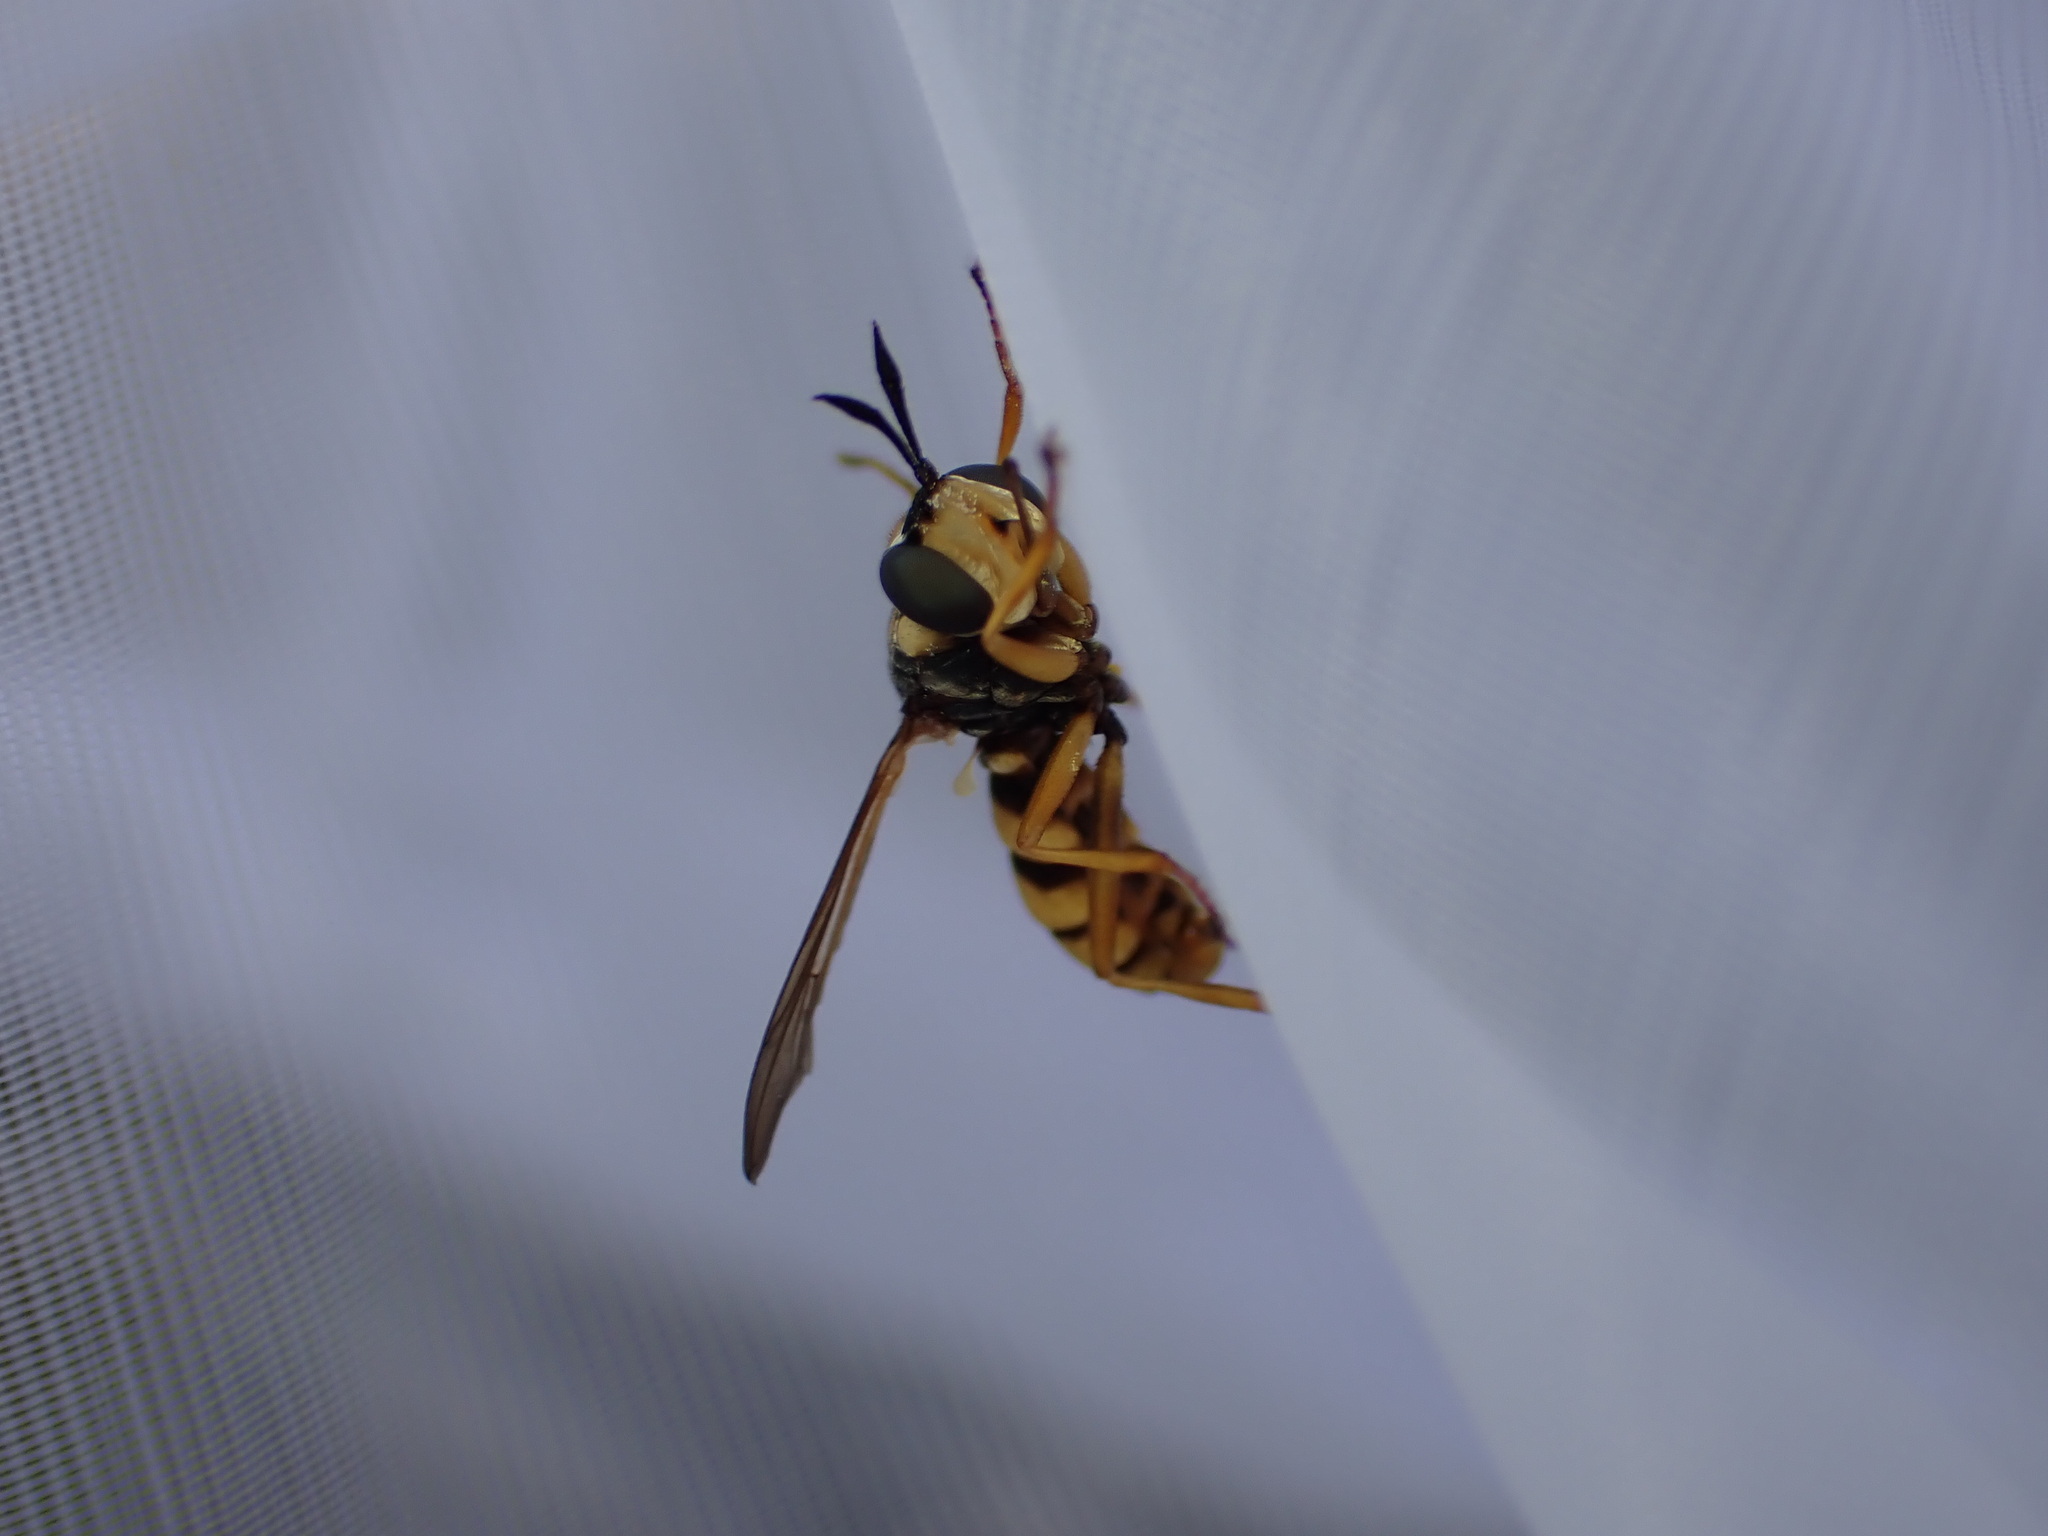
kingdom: Animalia
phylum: Arthropoda
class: Insecta
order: Diptera
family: Conopidae
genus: Conops
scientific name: Conops quadrifasciatus
